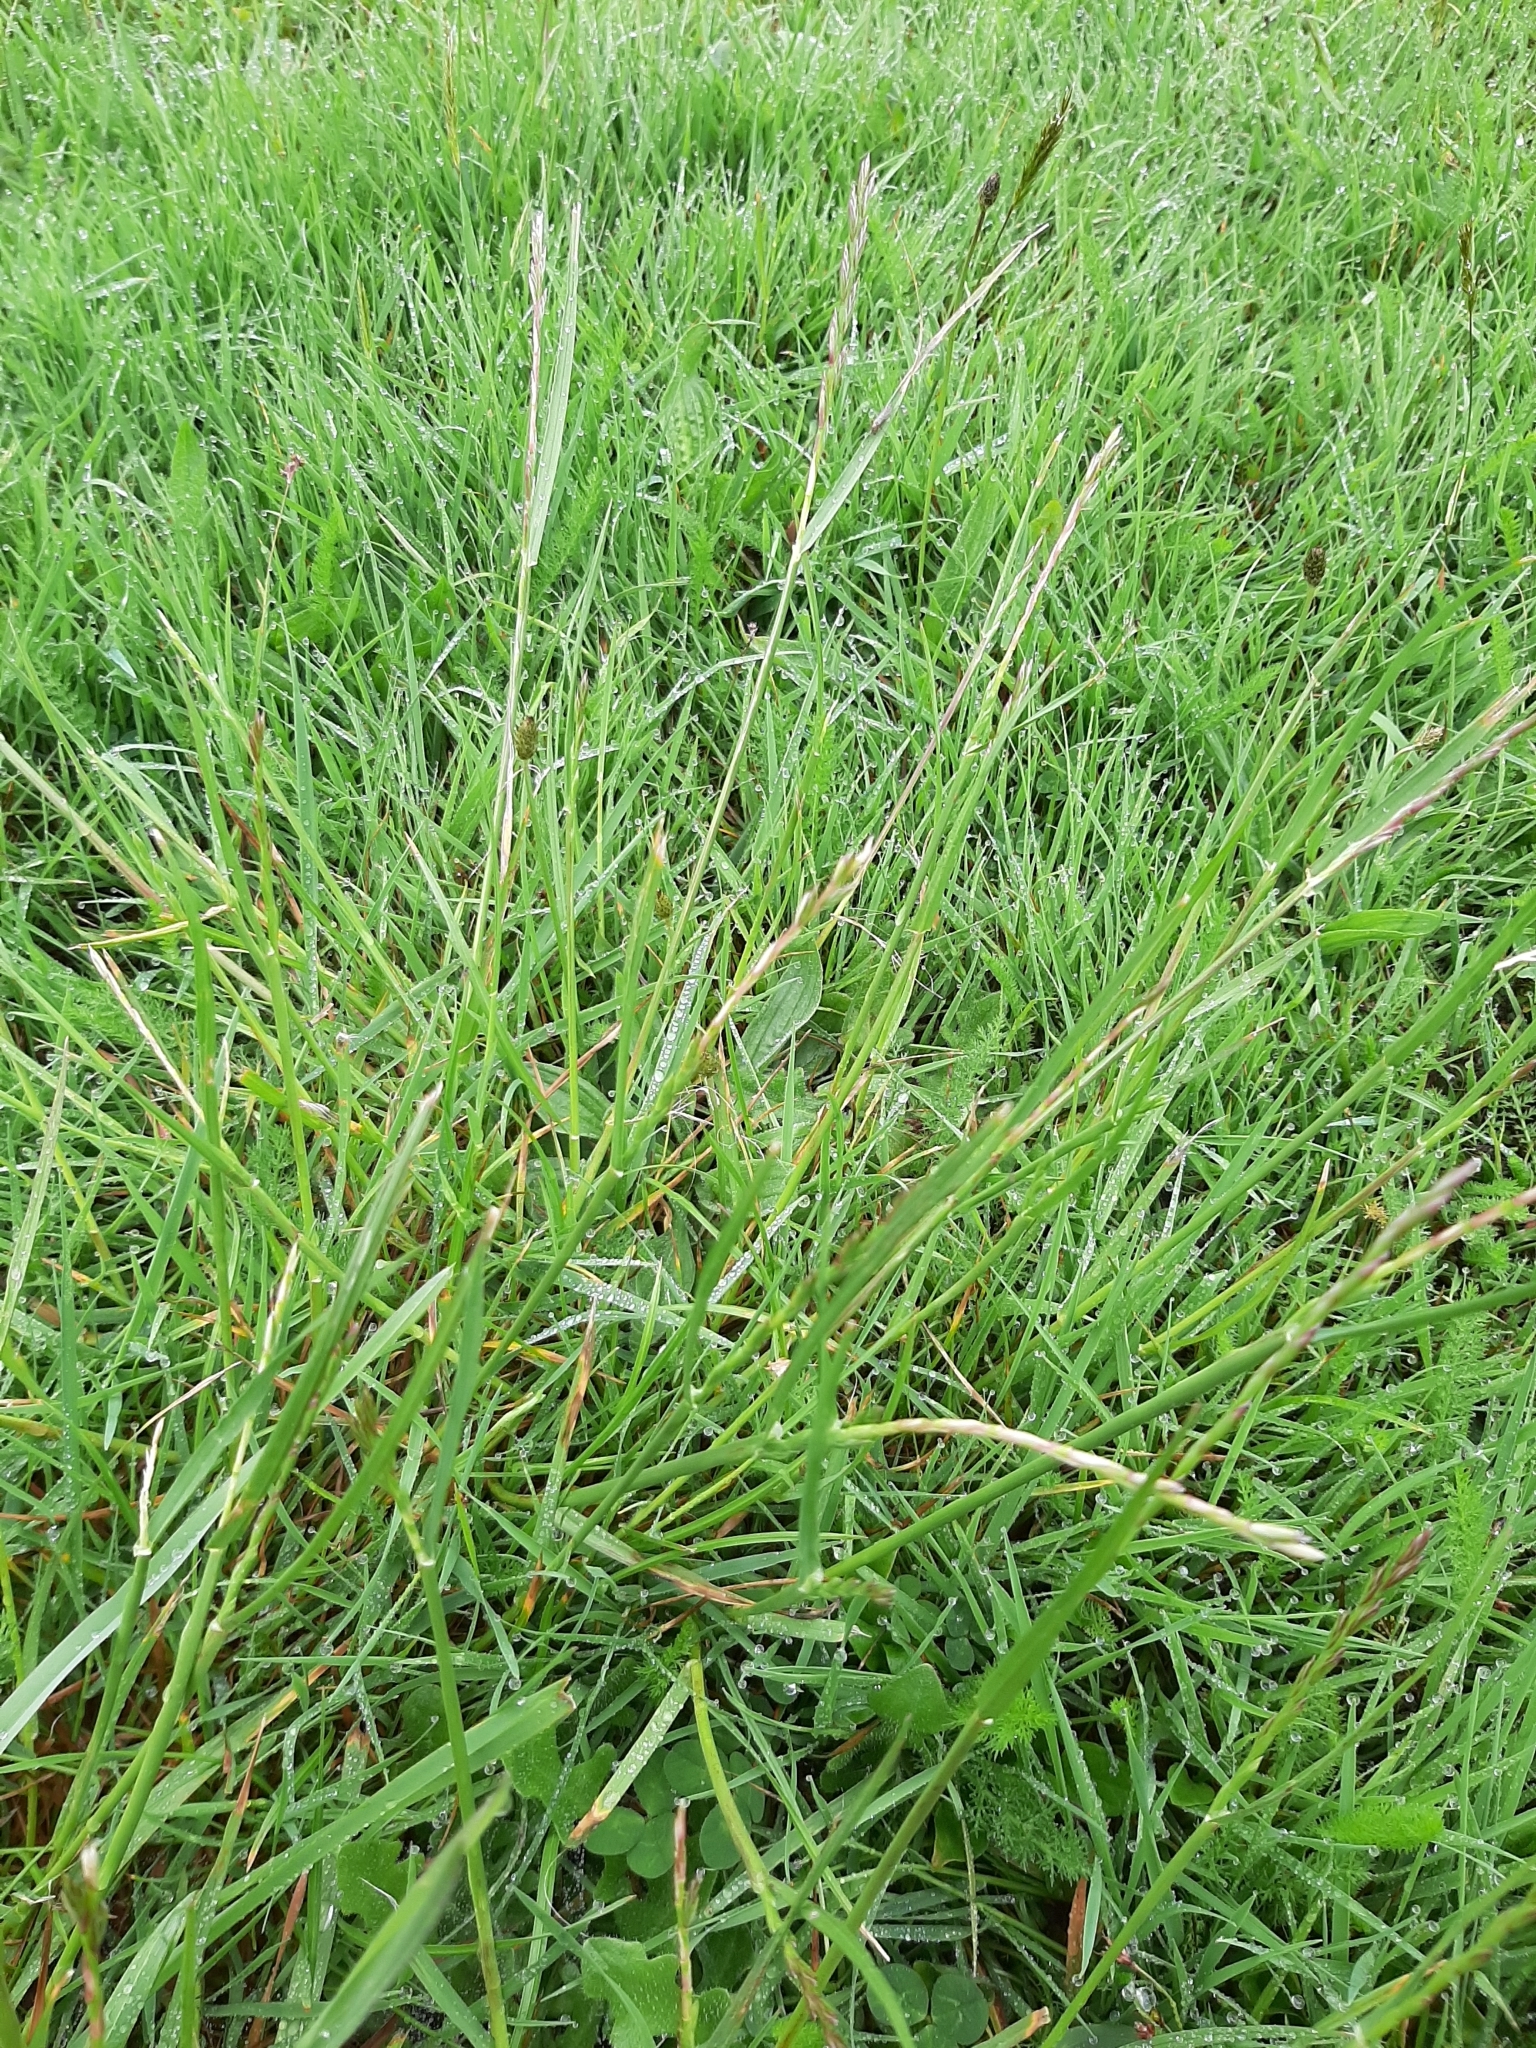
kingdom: Plantae
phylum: Tracheophyta
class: Liliopsida
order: Poales
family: Poaceae
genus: Lolium
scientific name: Lolium perenne
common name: Perennial ryegrass
